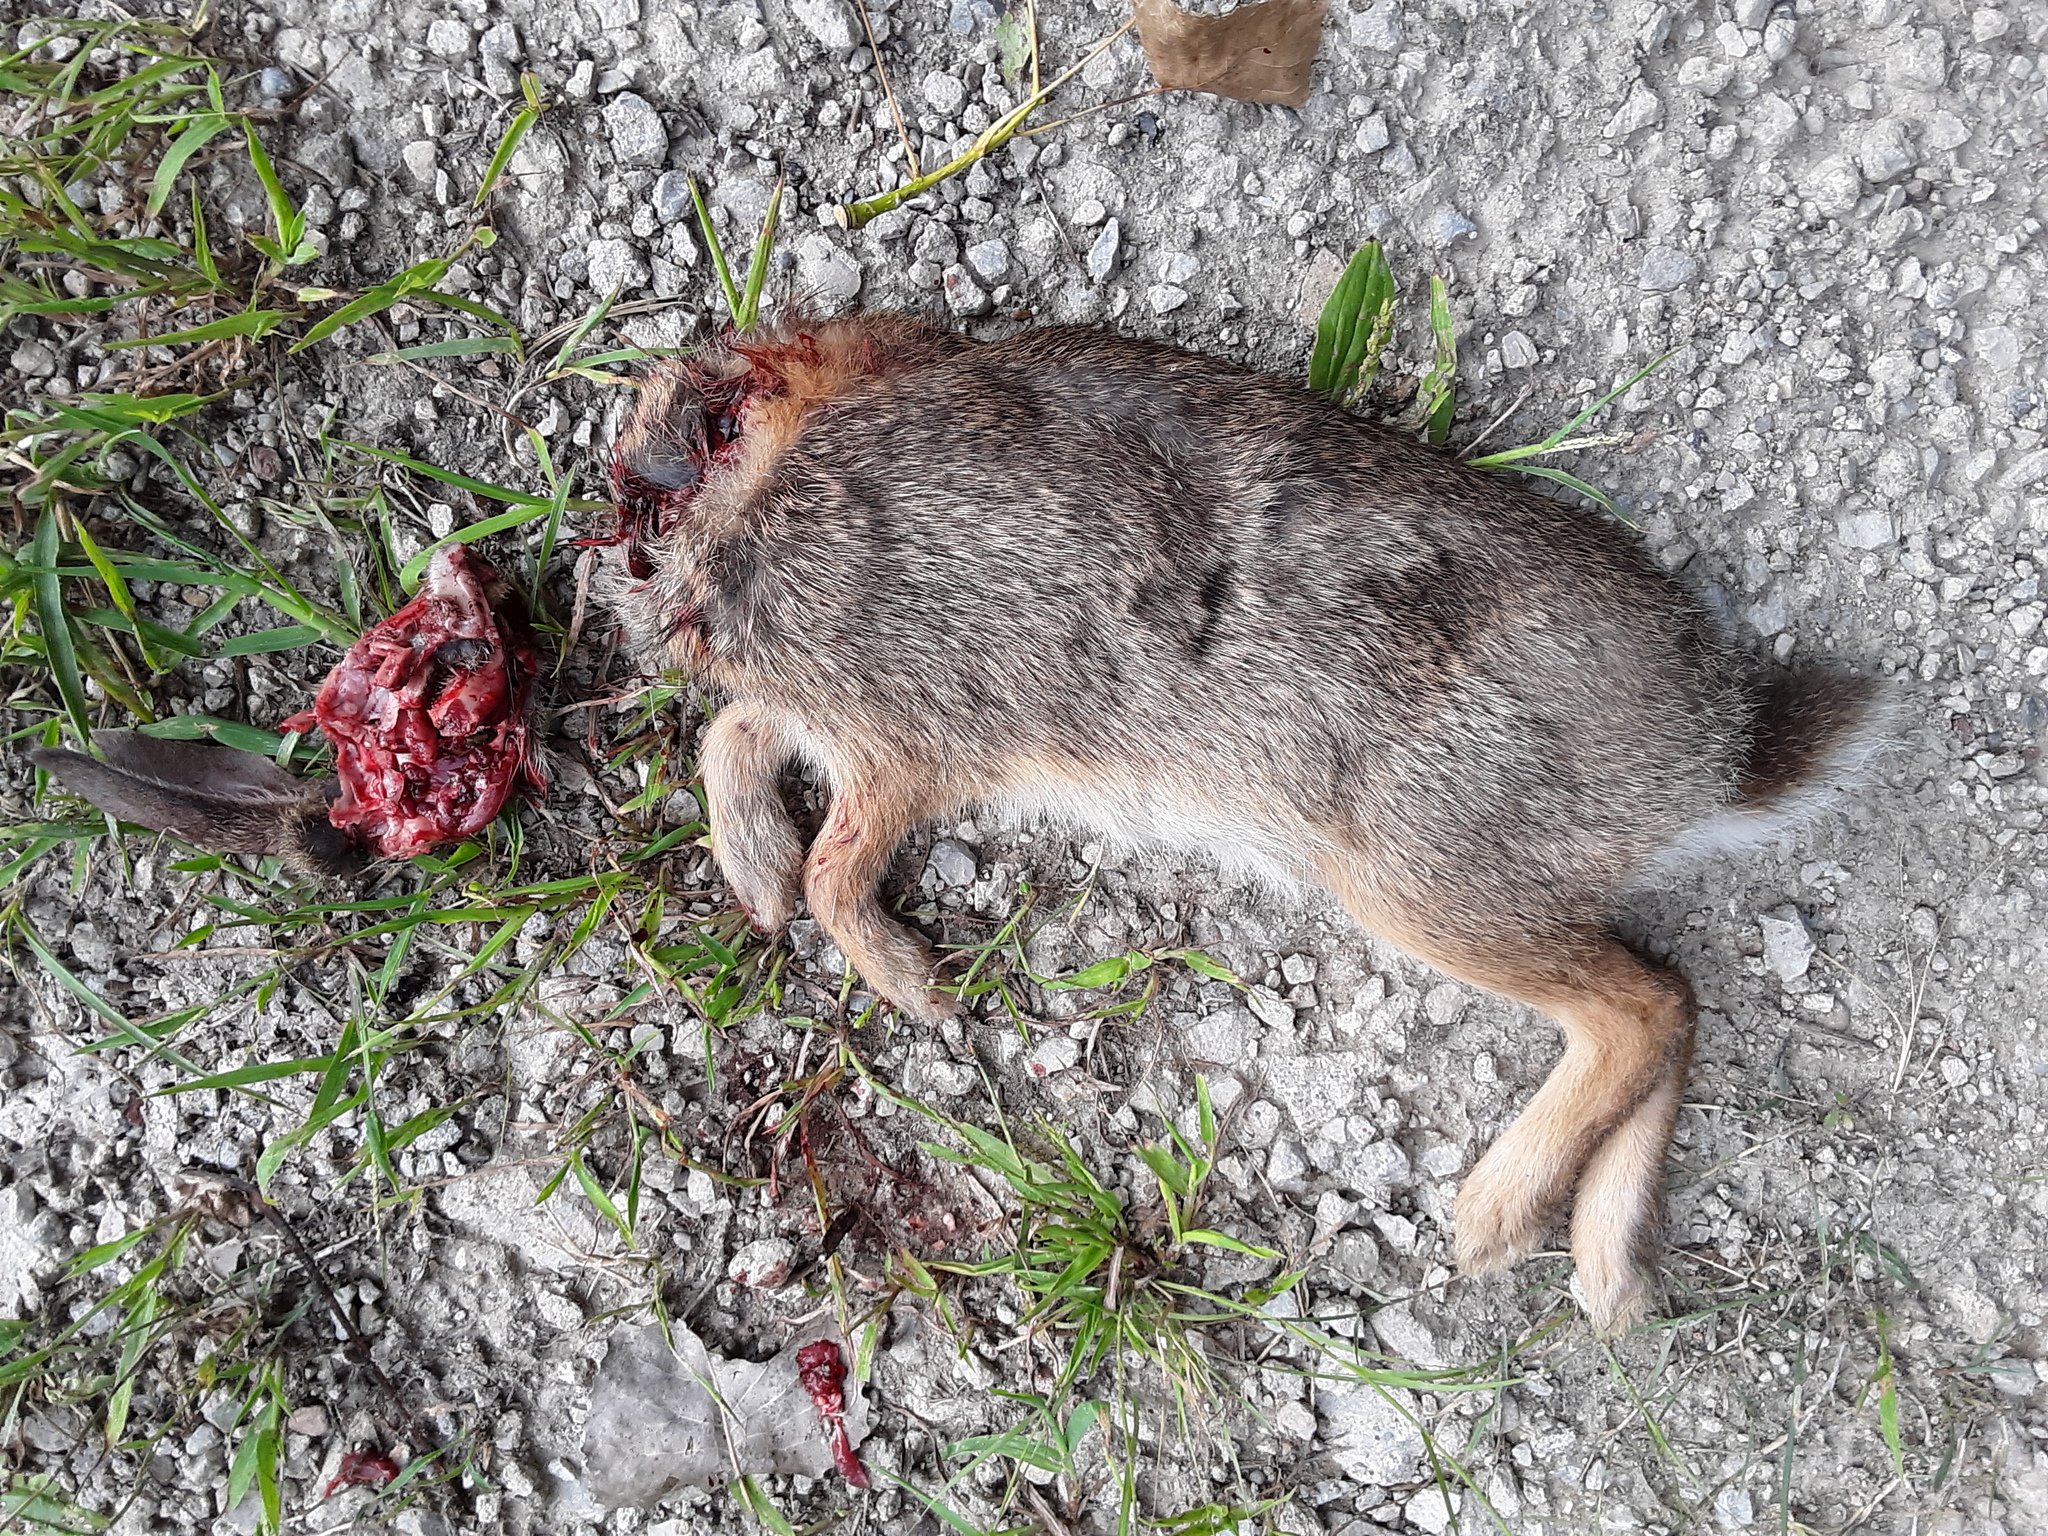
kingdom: Animalia
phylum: Chordata
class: Mammalia
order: Lagomorpha
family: Leporidae
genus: Sylvilagus
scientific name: Sylvilagus floridanus
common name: Eastern cottontail
